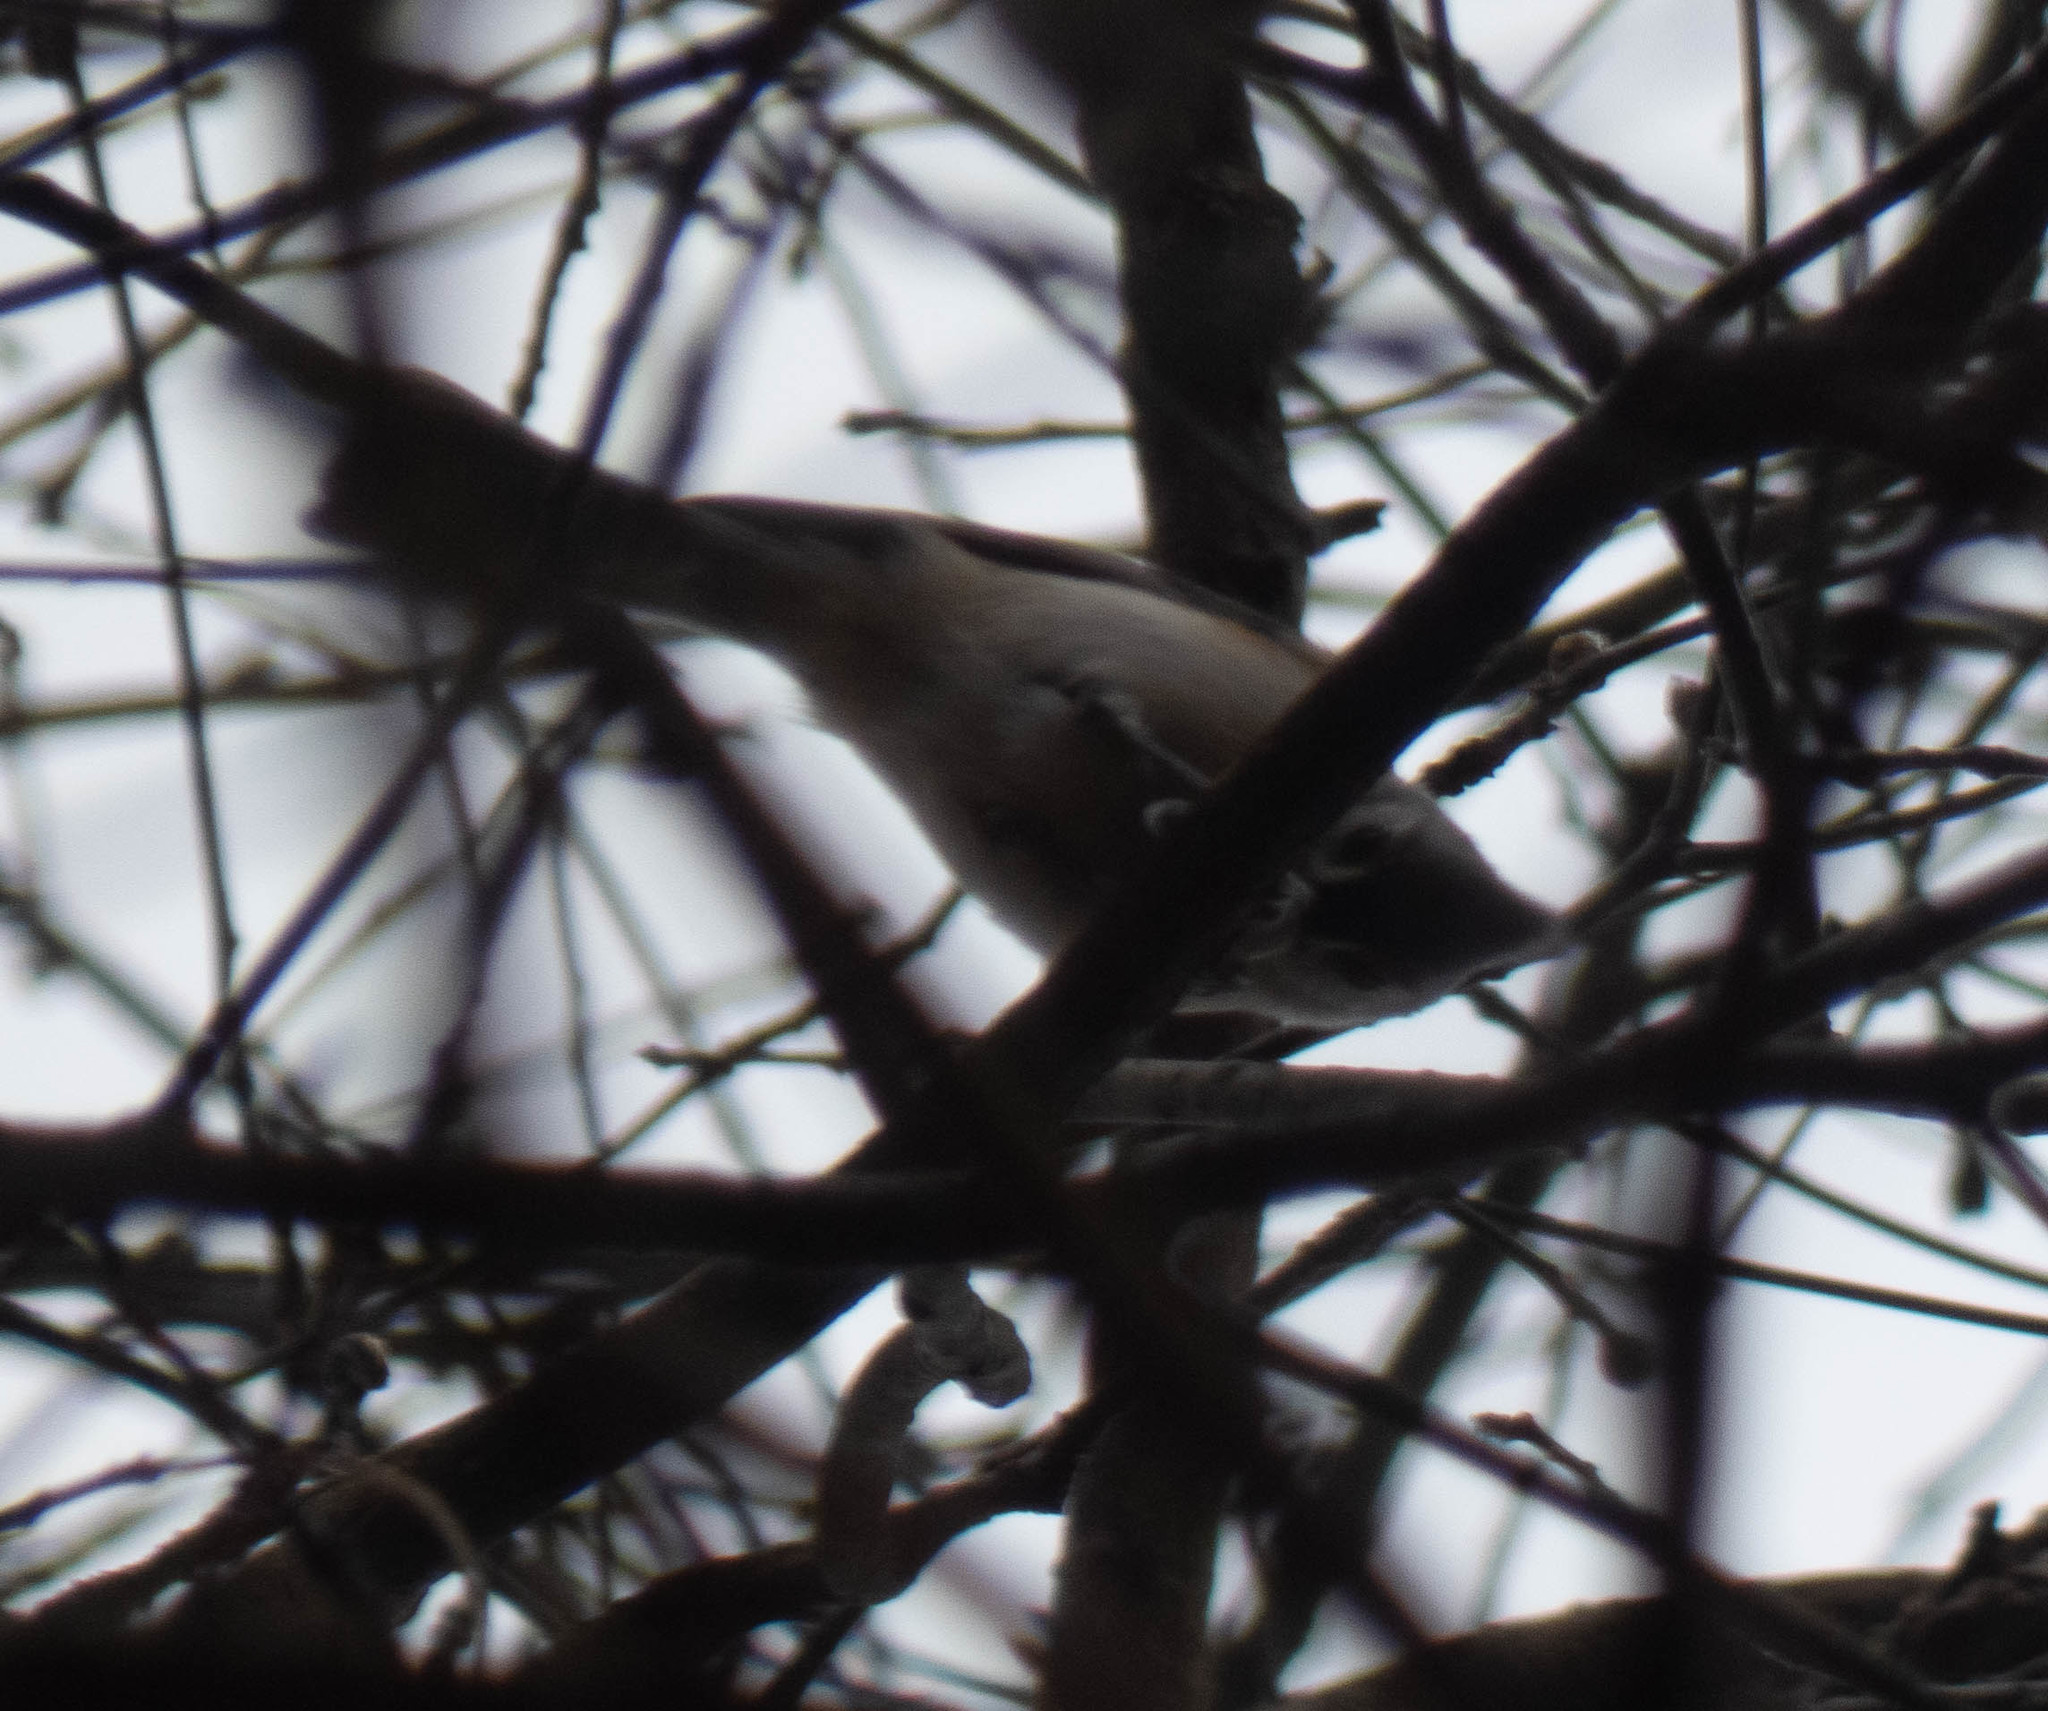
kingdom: Animalia
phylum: Chordata
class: Aves
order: Passeriformes
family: Paridae
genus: Baeolophus
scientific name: Baeolophus bicolor
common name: Tufted titmouse
